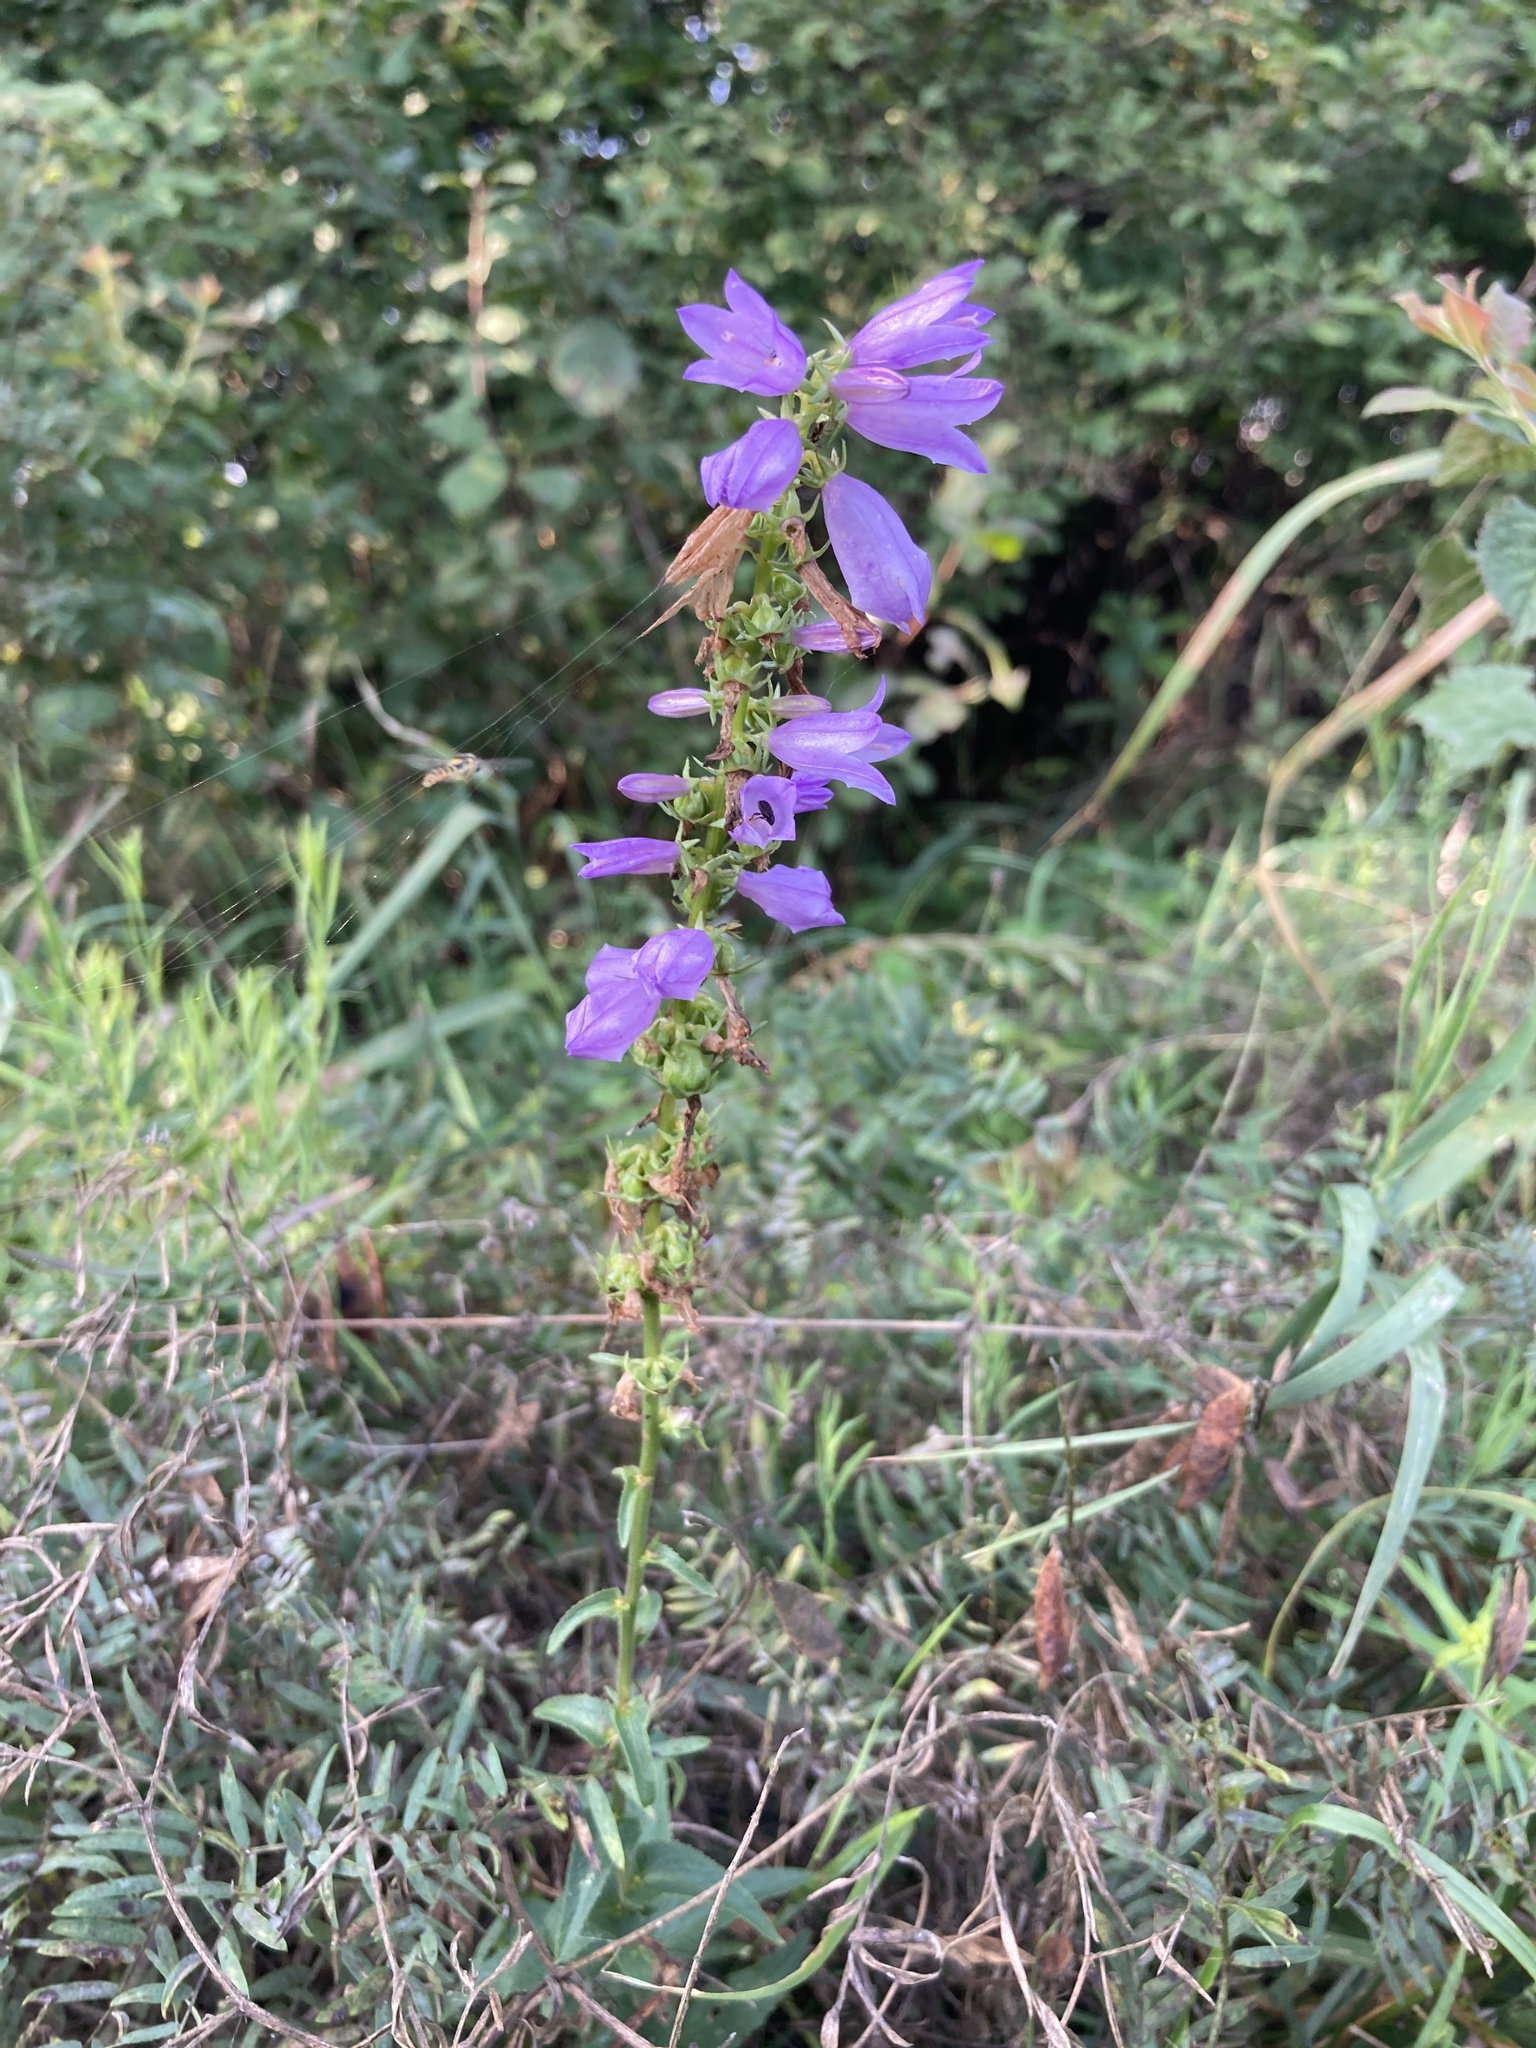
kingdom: Plantae
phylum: Tracheophyta
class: Magnoliopsida
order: Asterales
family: Campanulaceae
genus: Campanula
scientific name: Campanula bononiensis
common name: Pale bellflower
